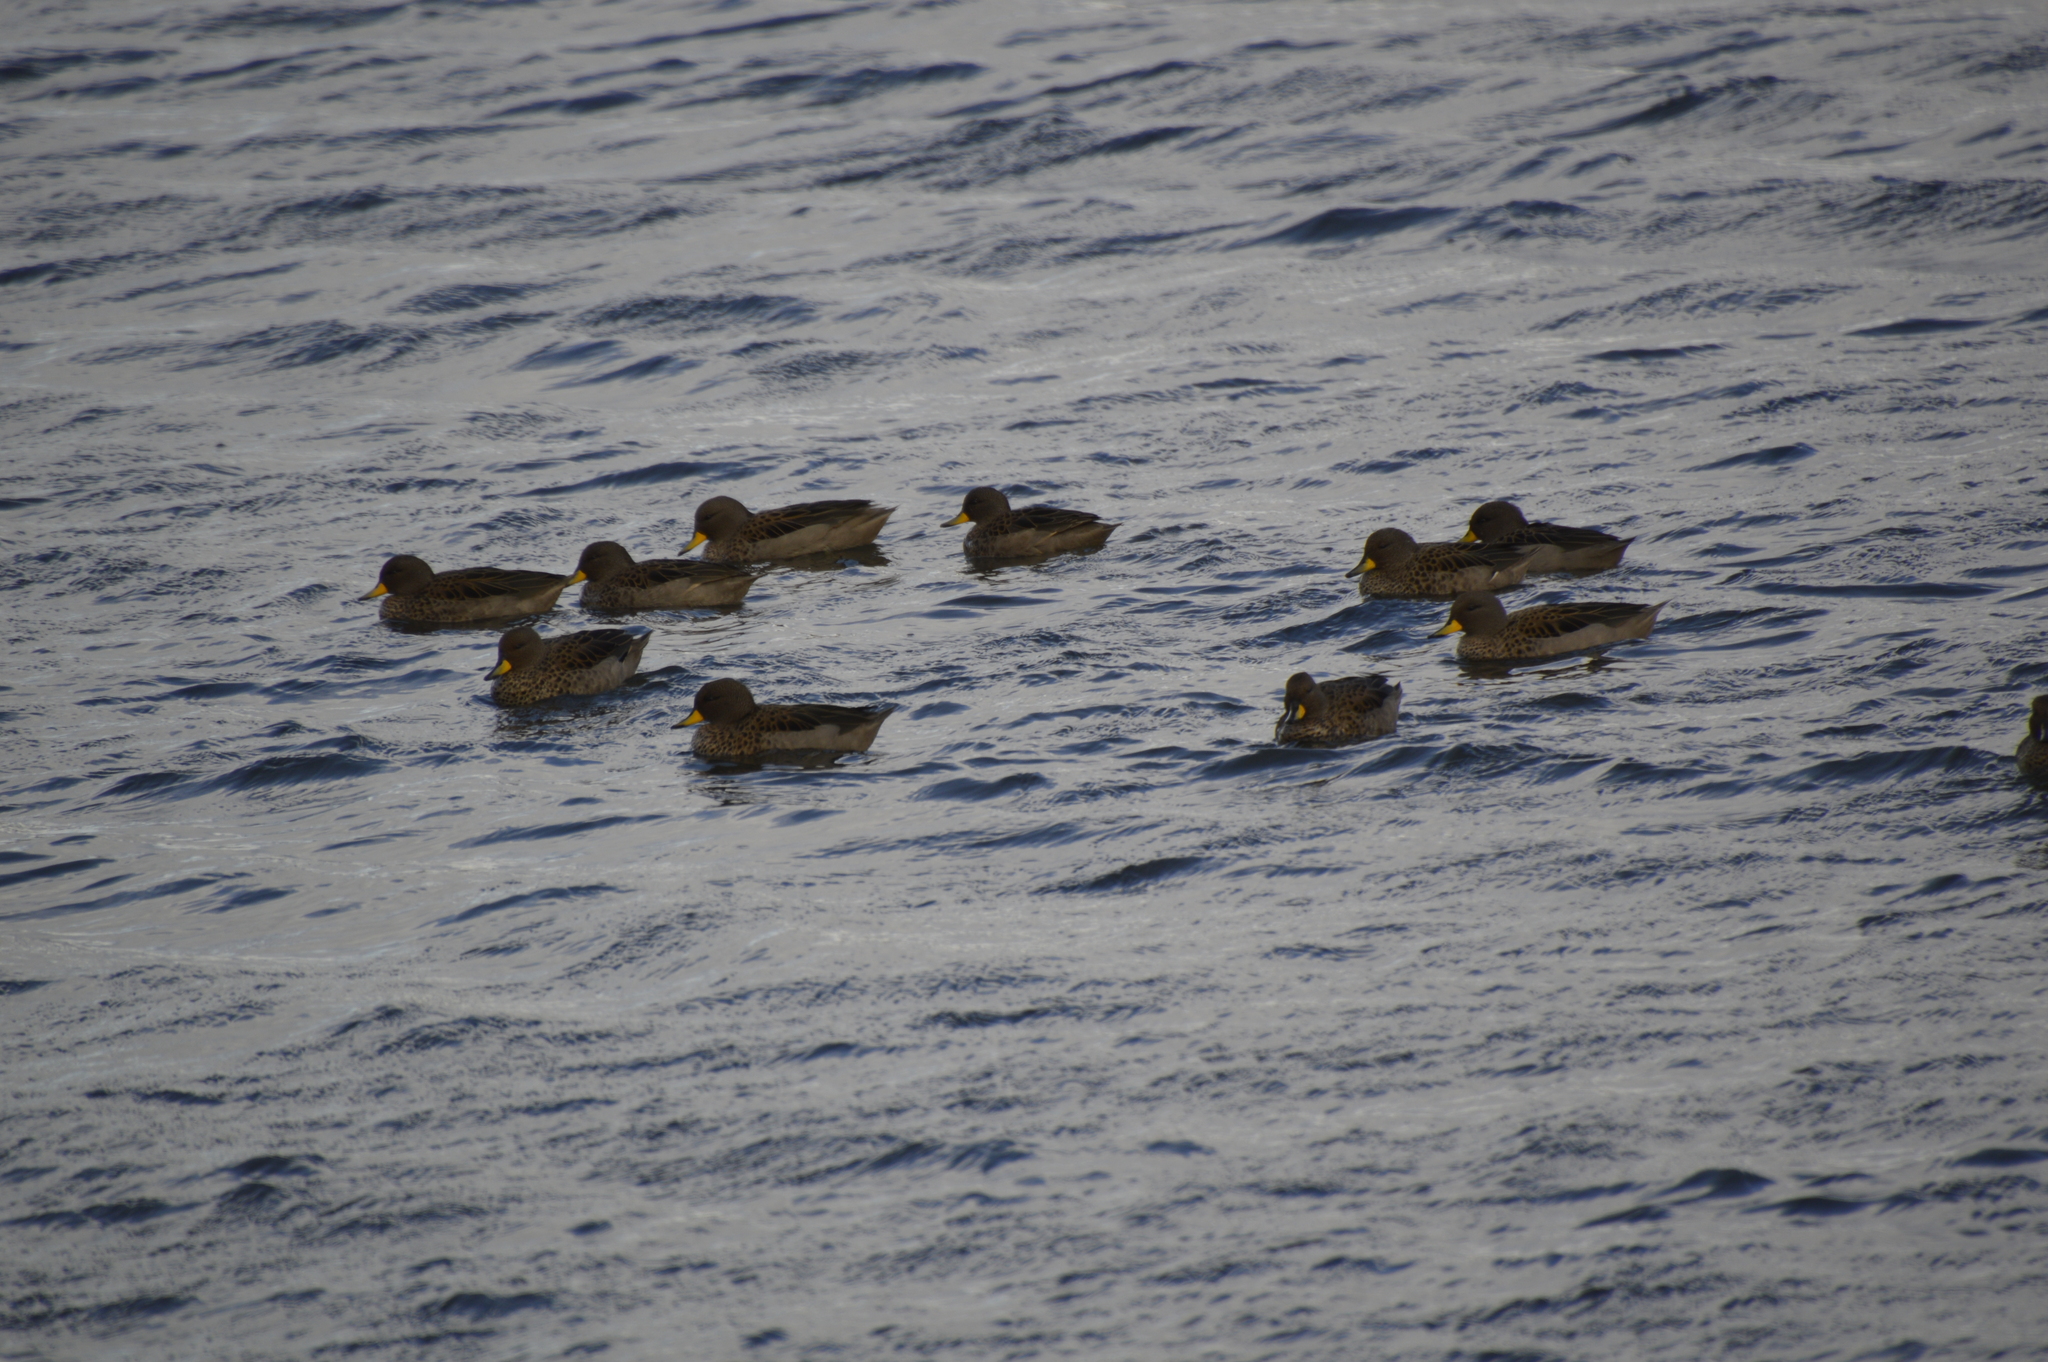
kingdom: Animalia
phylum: Chordata
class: Aves
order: Anseriformes
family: Anatidae
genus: Anas
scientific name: Anas flavirostris
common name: Yellow-billed teal
